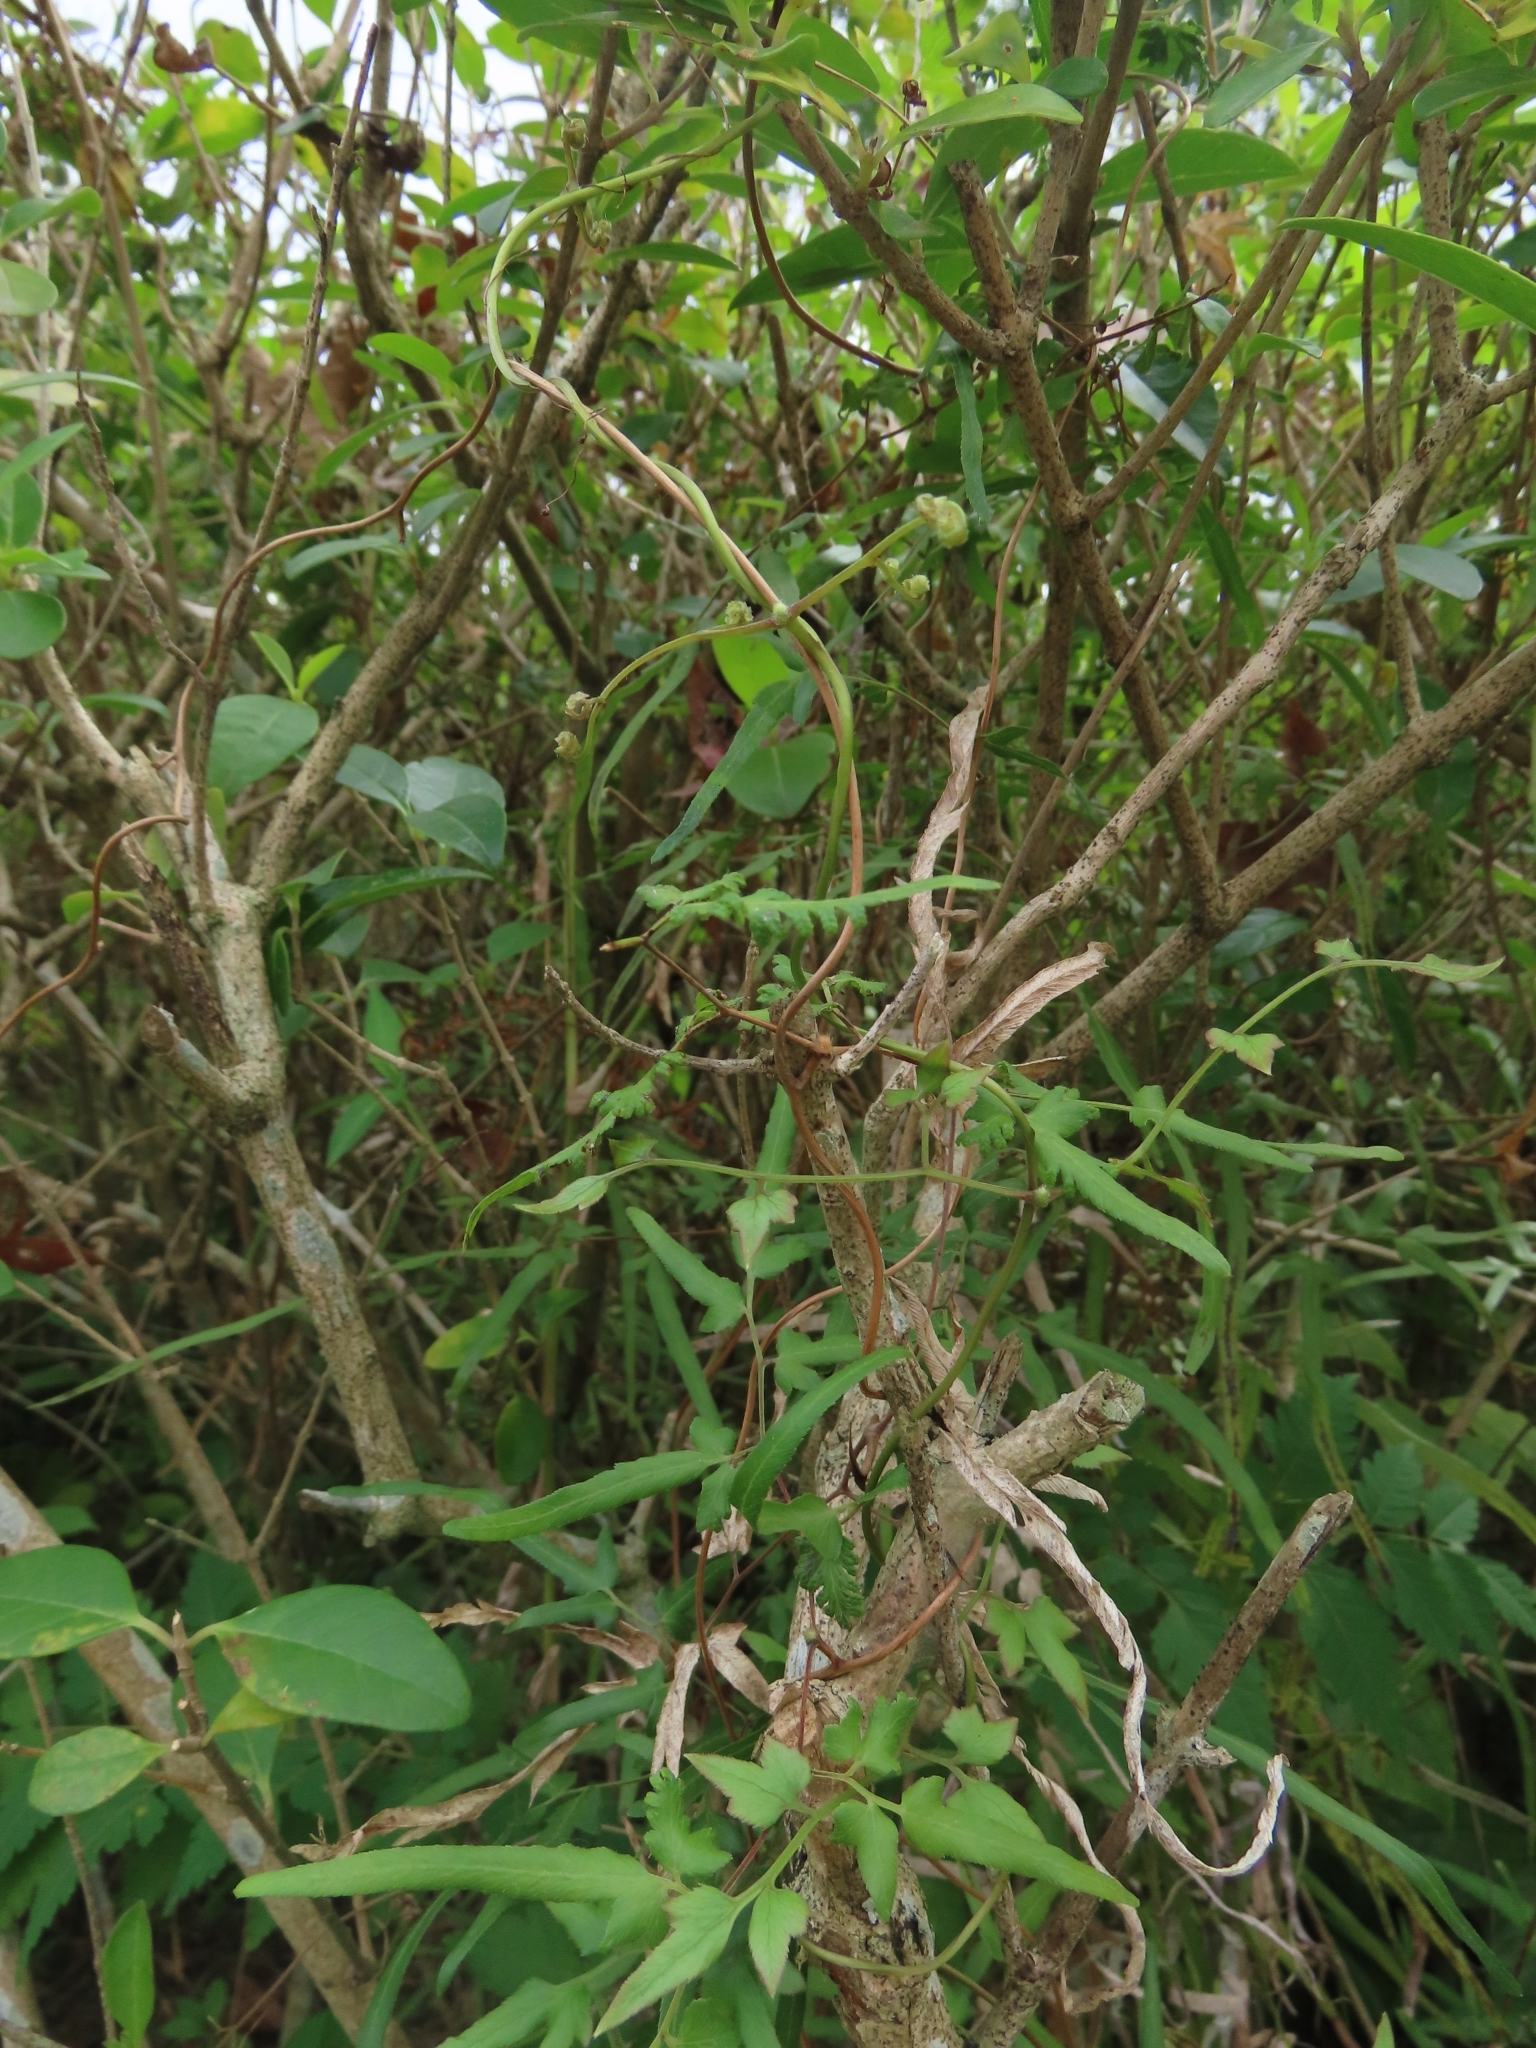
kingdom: Plantae
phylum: Tracheophyta
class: Polypodiopsida
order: Schizaeales
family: Lygodiaceae
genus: Lygodium
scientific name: Lygodium japonicum
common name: Japanese climbing fern
